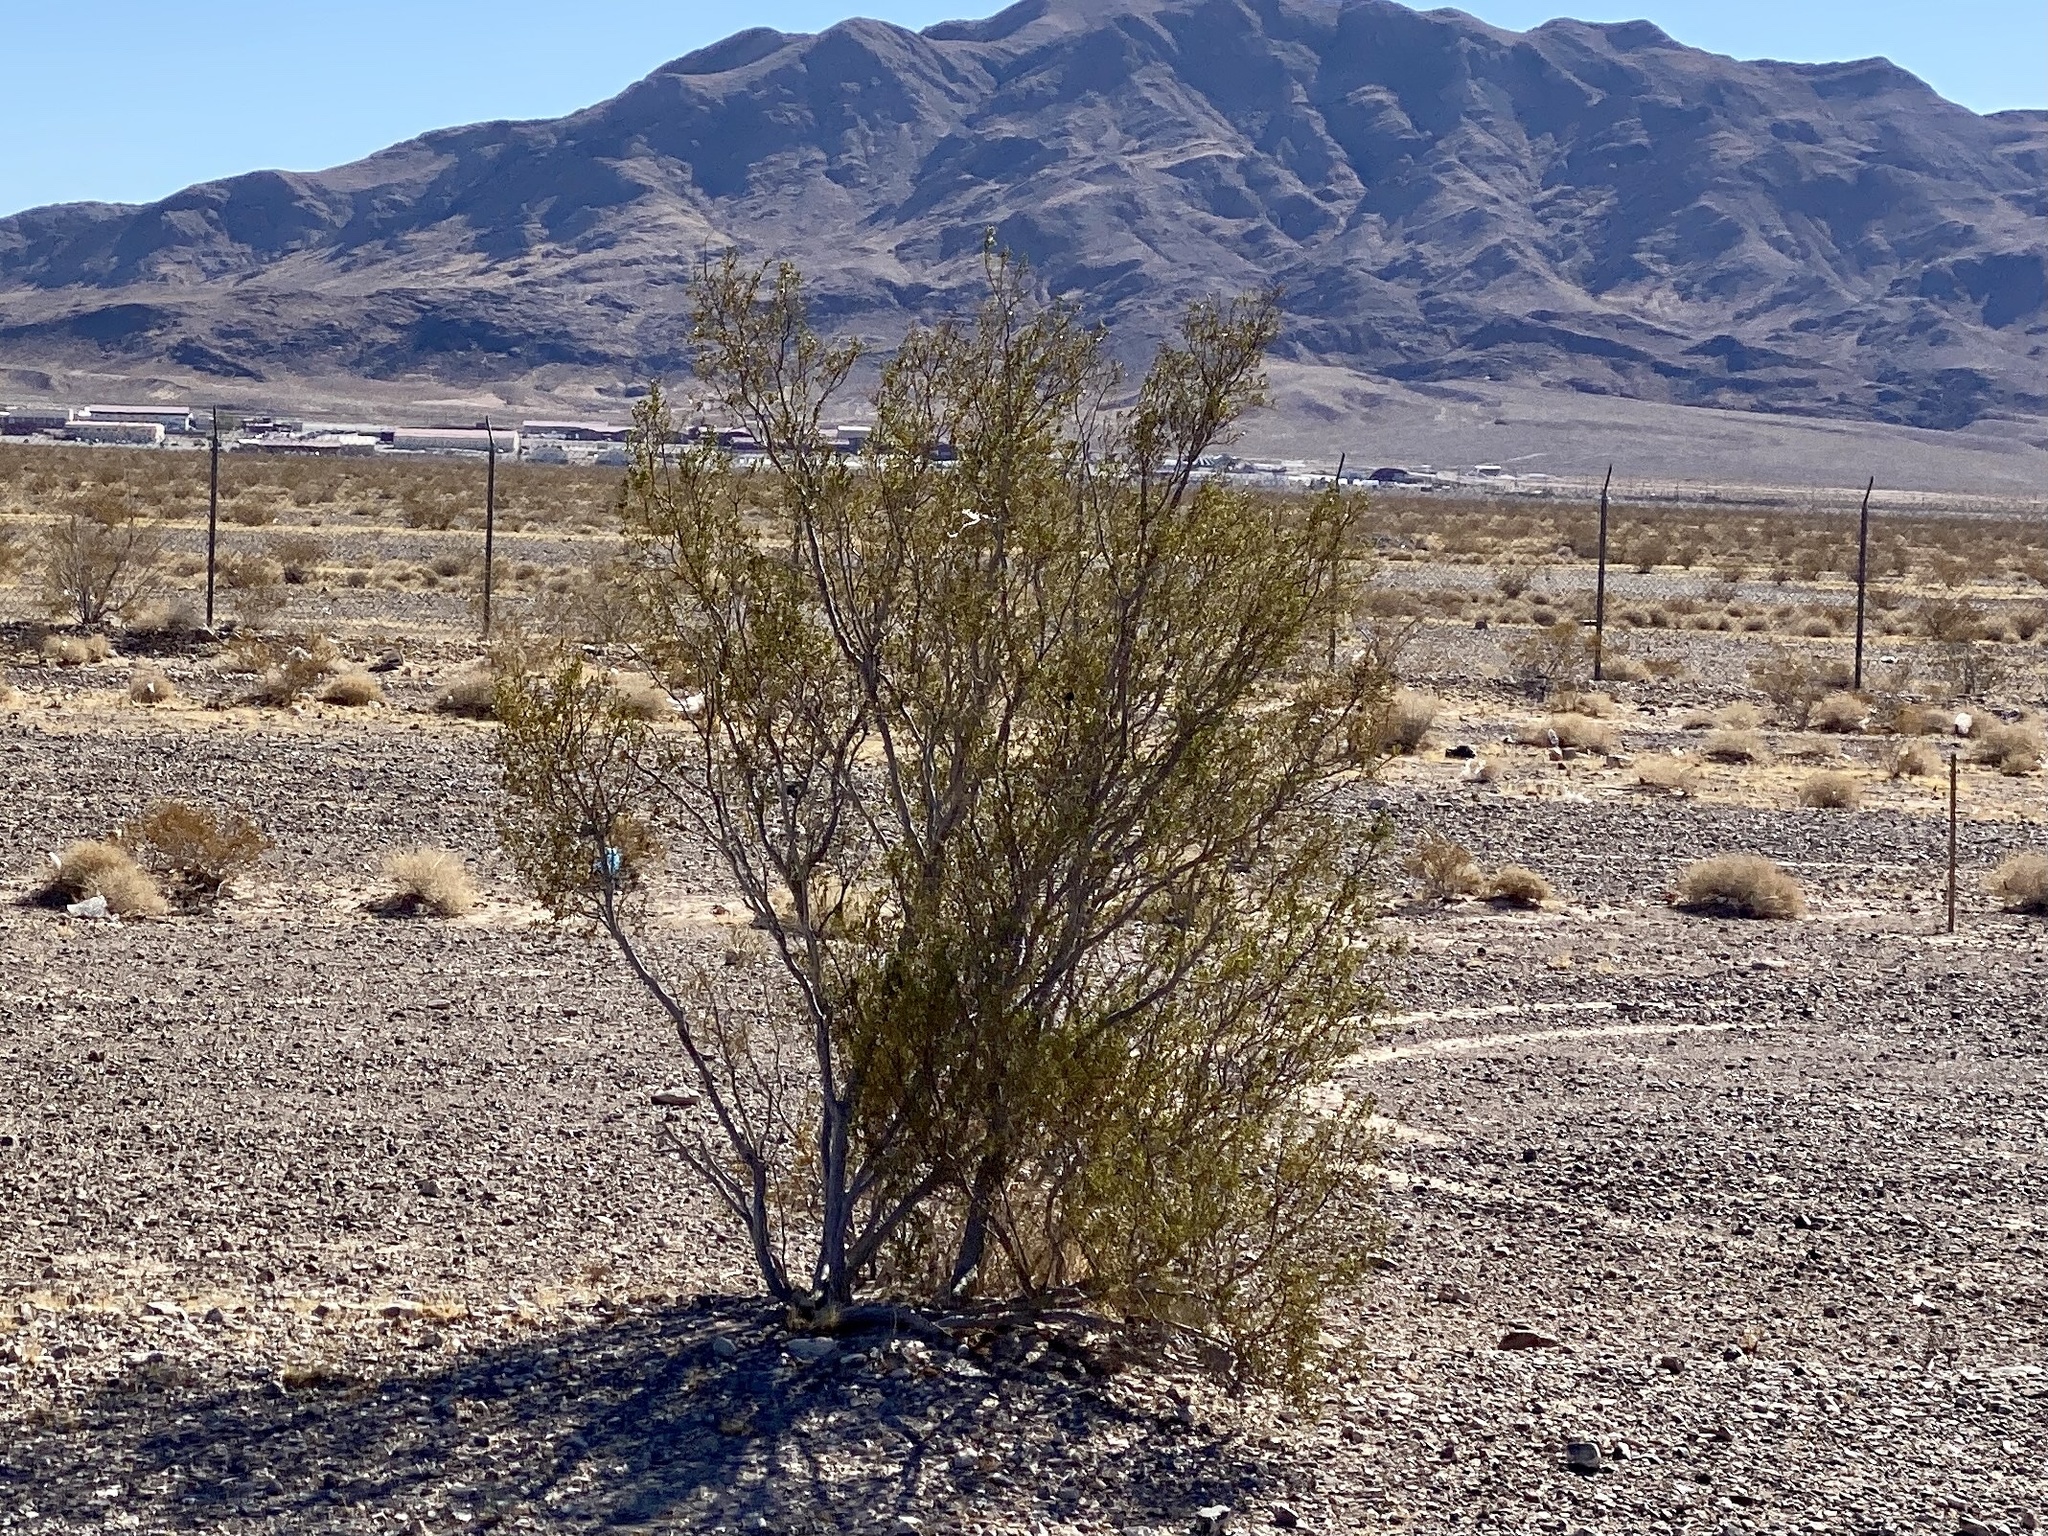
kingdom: Plantae
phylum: Tracheophyta
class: Magnoliopsida
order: Zygophyllales
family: Zygophyllaceae
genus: Larrea
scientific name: Larrea tridentata
